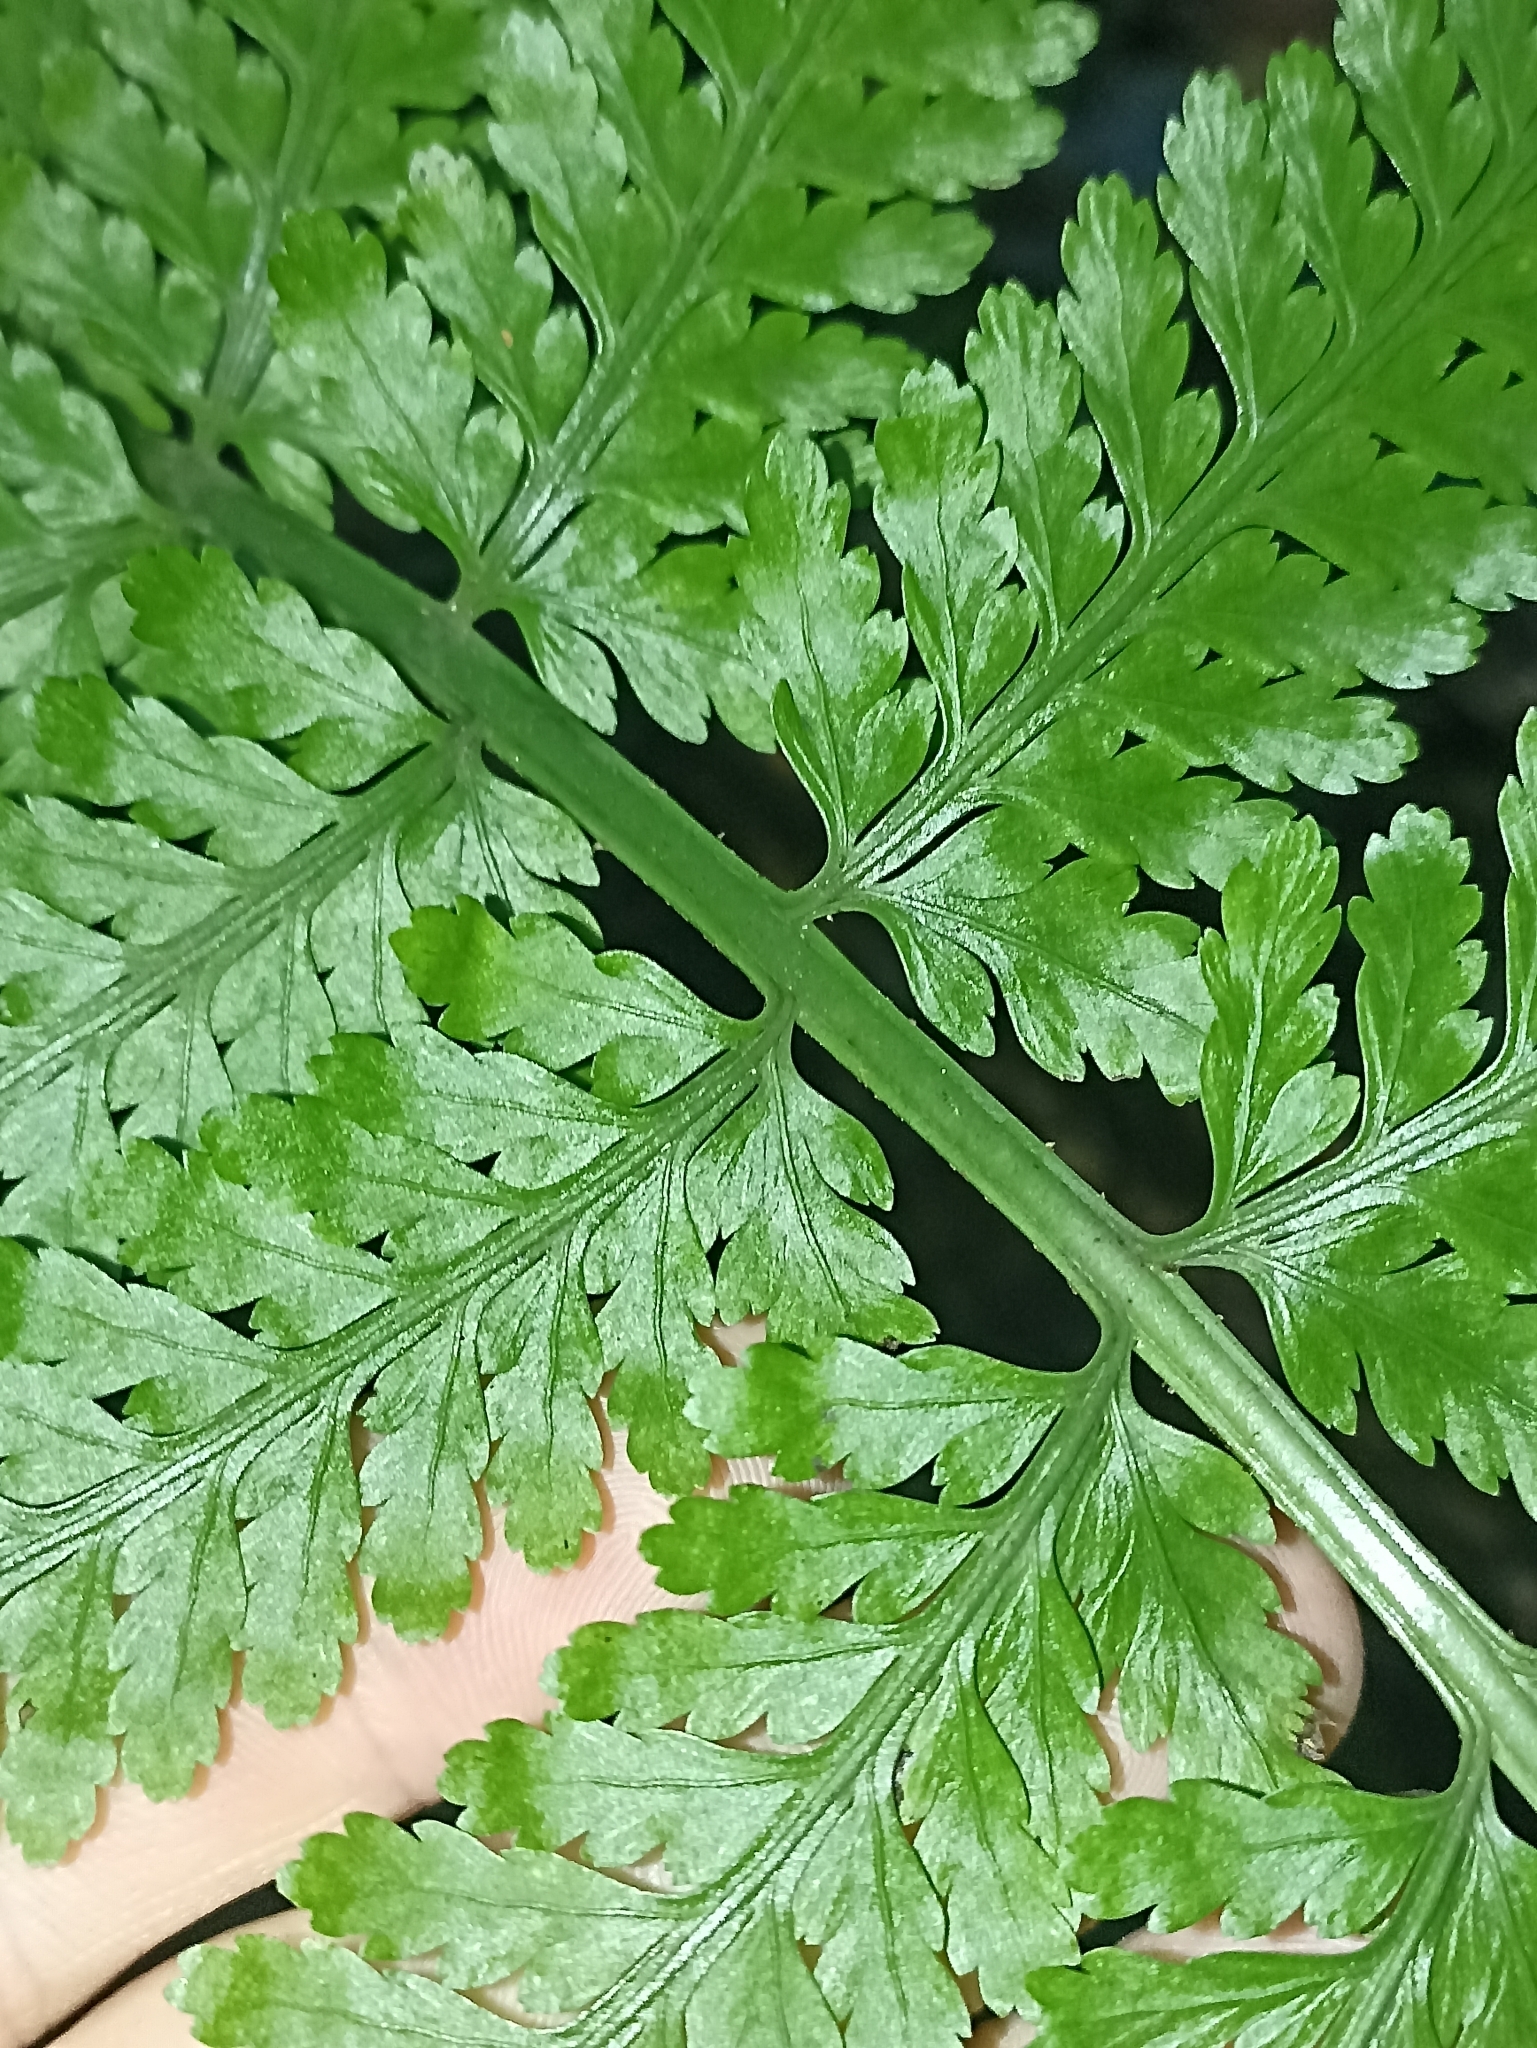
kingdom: Plantae
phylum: Tracheophyta
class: Polypodiopsida
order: Polypodiales
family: Aspleniaceae
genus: Asplenium
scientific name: Asplenium bulbiferum
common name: Mother fern
